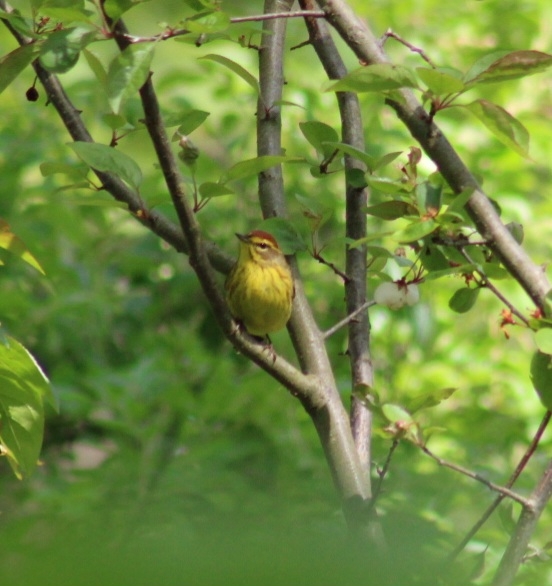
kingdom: Animalia
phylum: Chordata
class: Aves
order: Passeriformes
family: Parulidae
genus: Setophaga
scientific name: Setophaga palmarum
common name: Palm warbler
